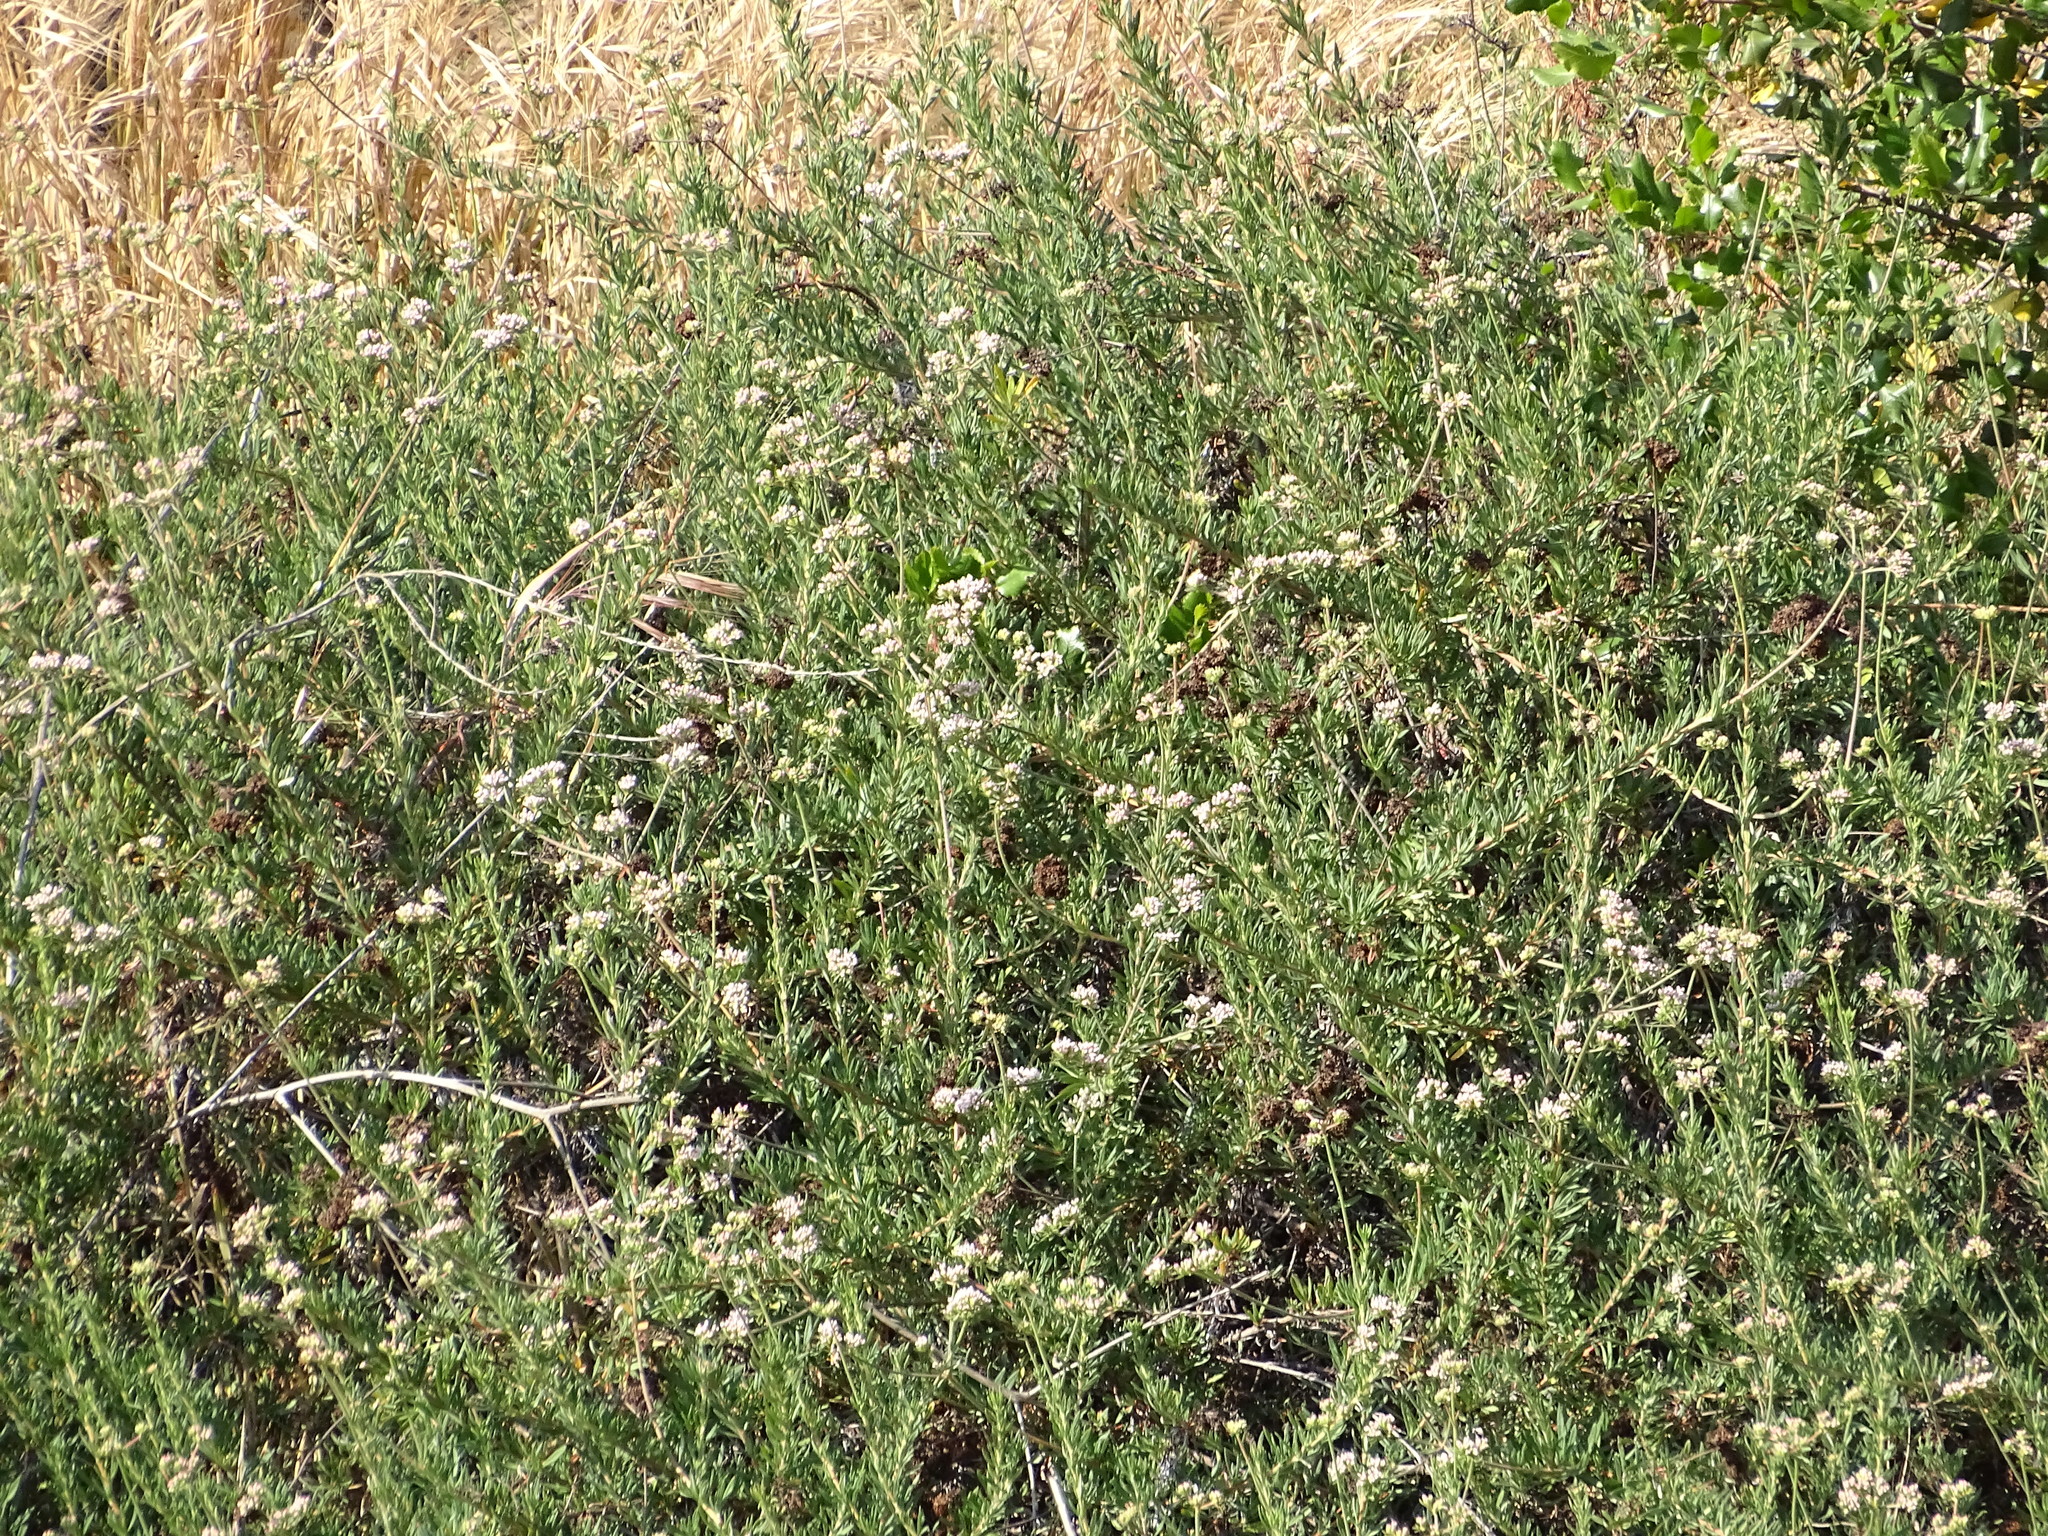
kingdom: Plantae
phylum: Tracheophyta
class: Magnoliopsida
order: Caryophyllales
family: Polygonaceae
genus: Eriogonum
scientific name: Eriogonum fasciculatum
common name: California wild buckwheat
